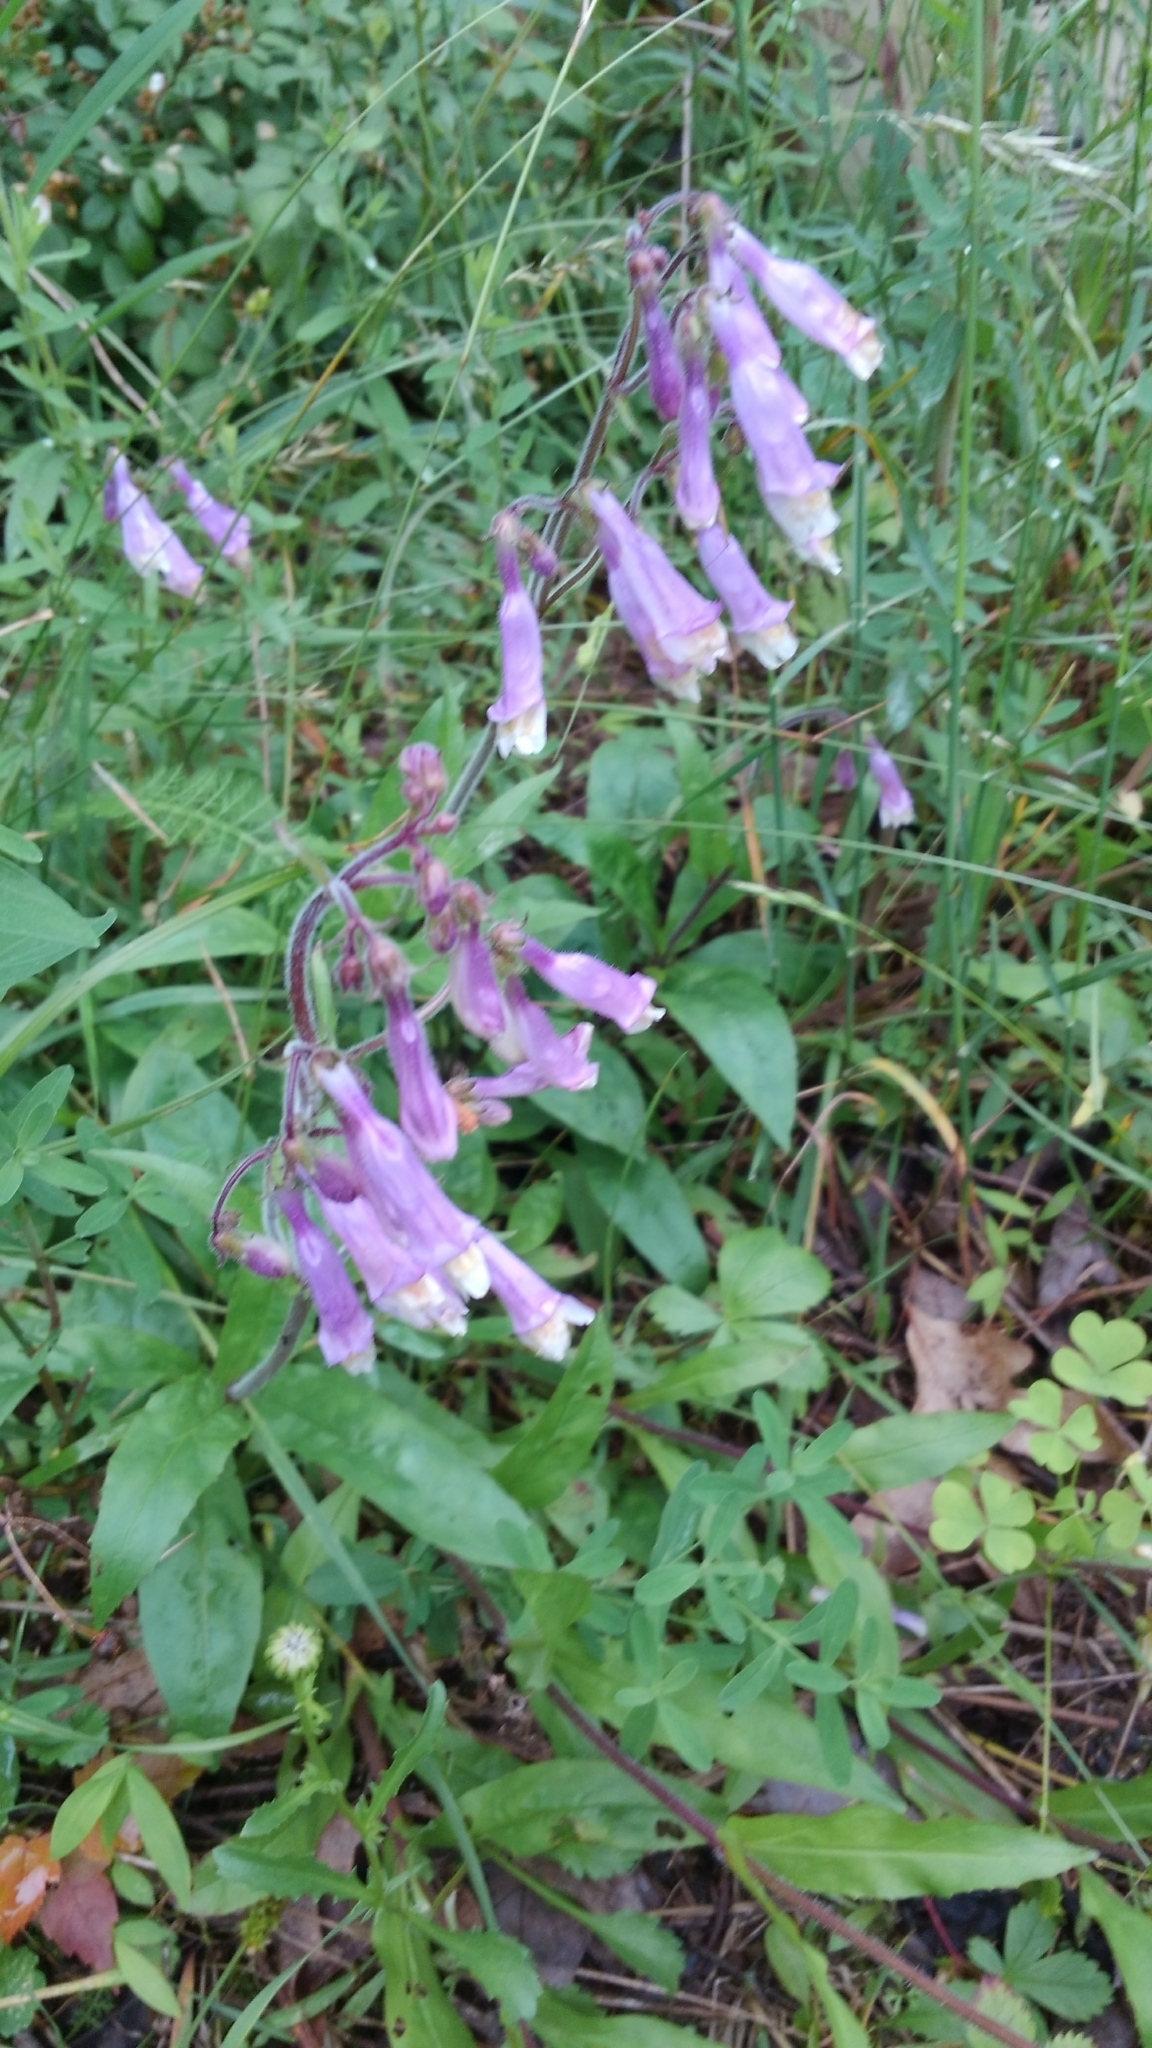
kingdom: Plantae
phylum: Tracheophyta
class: Magnoliopsida
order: Lamiales
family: Plantaginaceae
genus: Penstemon
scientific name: Penstemon hirsutus
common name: Hairy beardtongue
